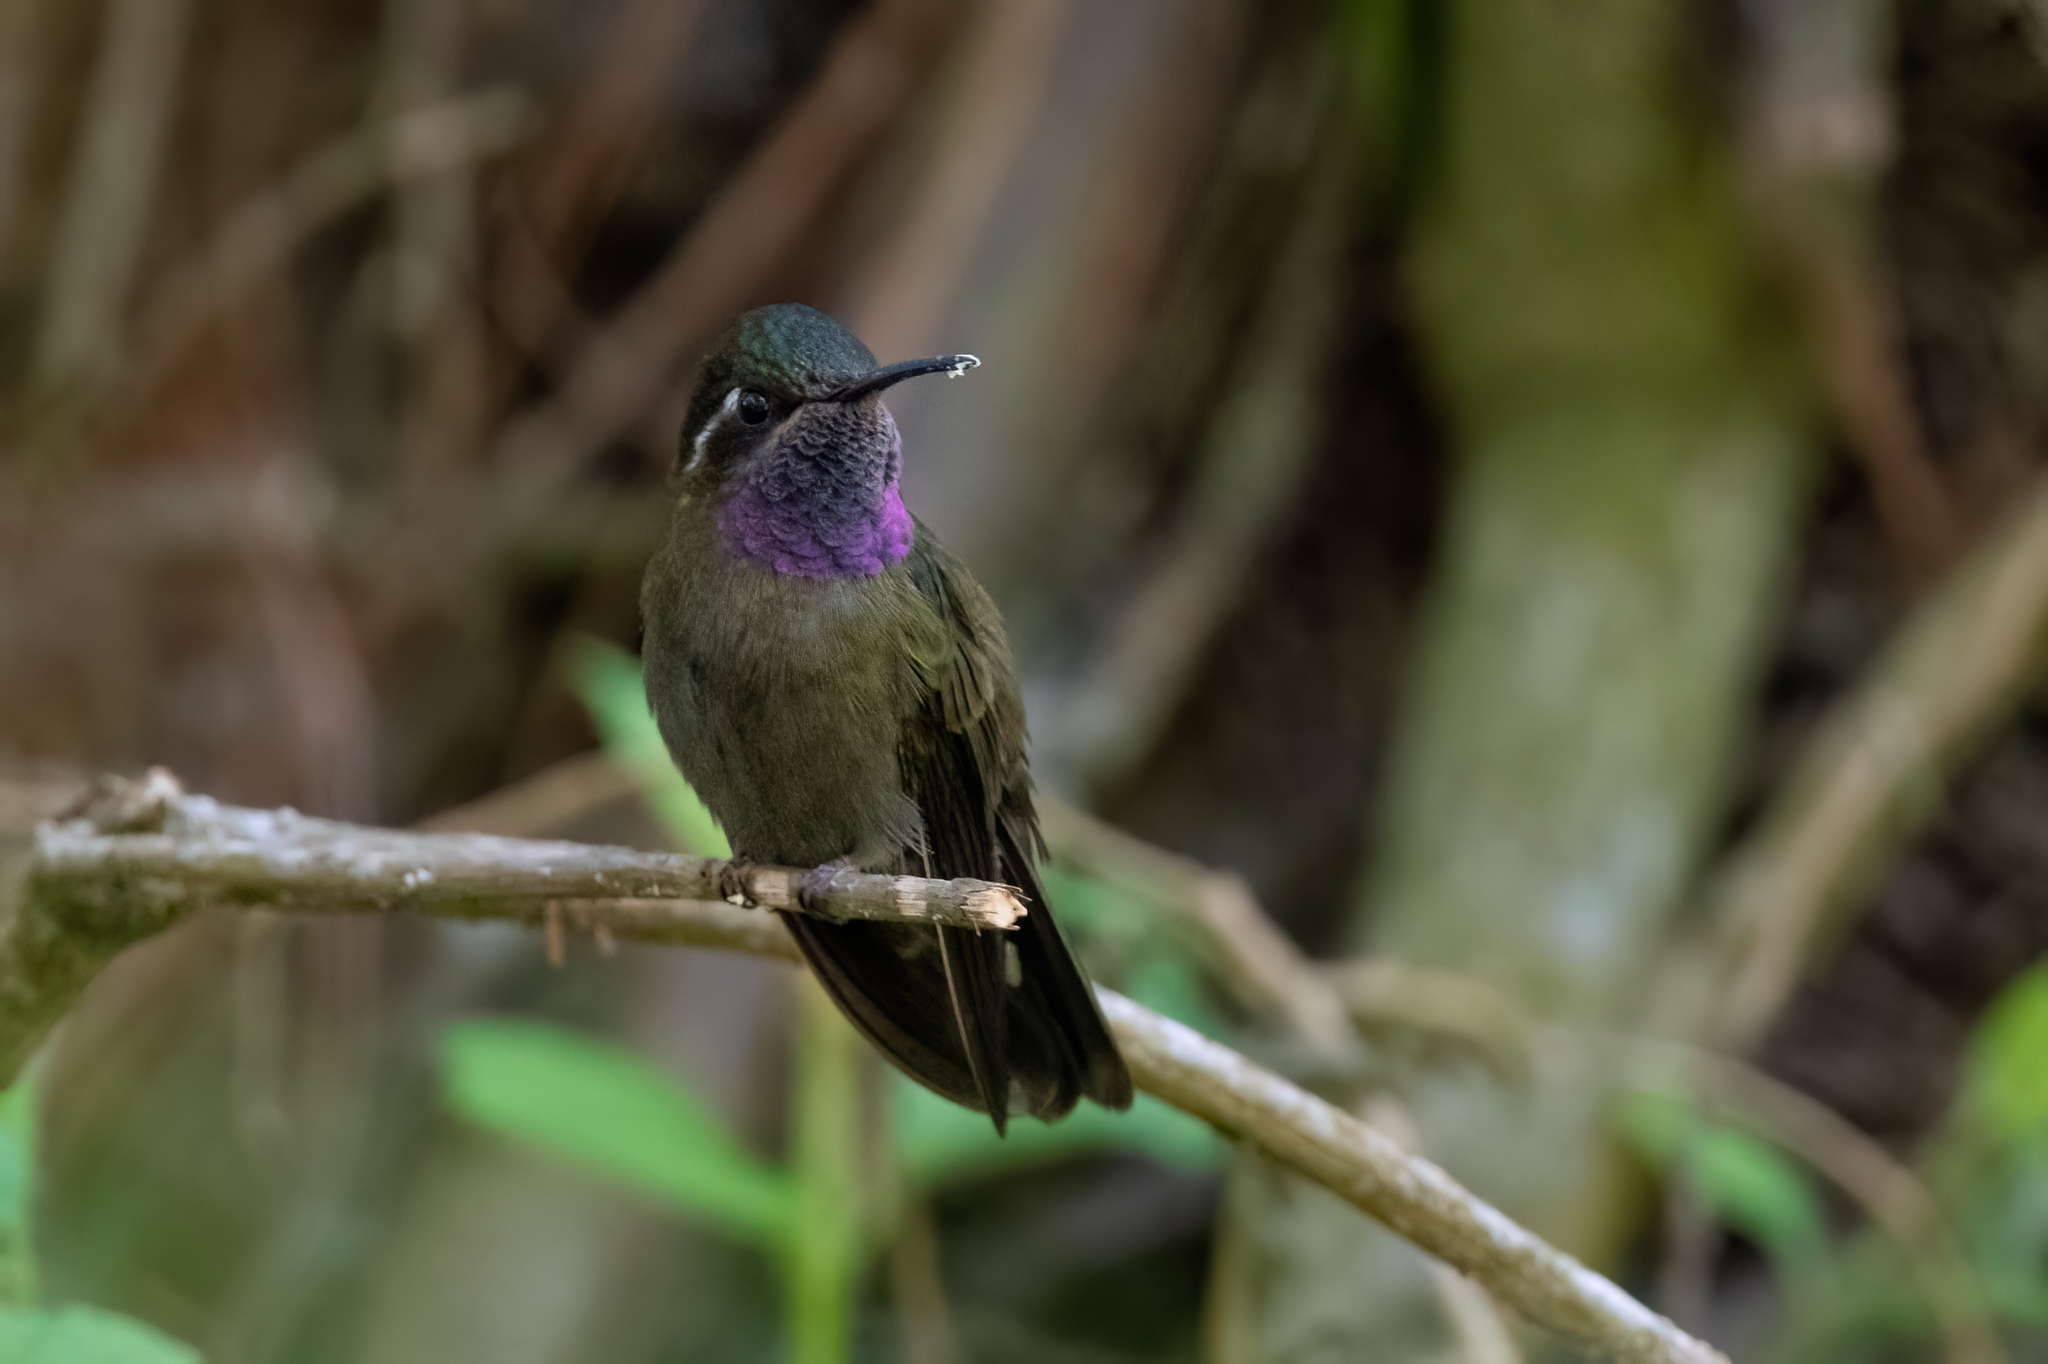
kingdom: Animalia
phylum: Chordata
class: Aves
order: Apodiformes
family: Trochilidae
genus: Lampornis
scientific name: Lampornis amethystinus
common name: Amethyst-throated mountaingem
